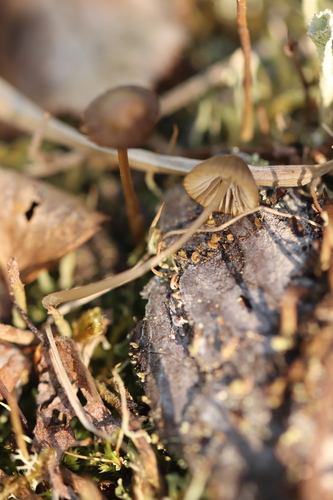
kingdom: Fungi
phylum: Basidiomycota
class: Agaricomycetes
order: Agaricales
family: Mycenaceae
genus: Mycena
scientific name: Mycena silvae-nigrae
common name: Pine bonnet
